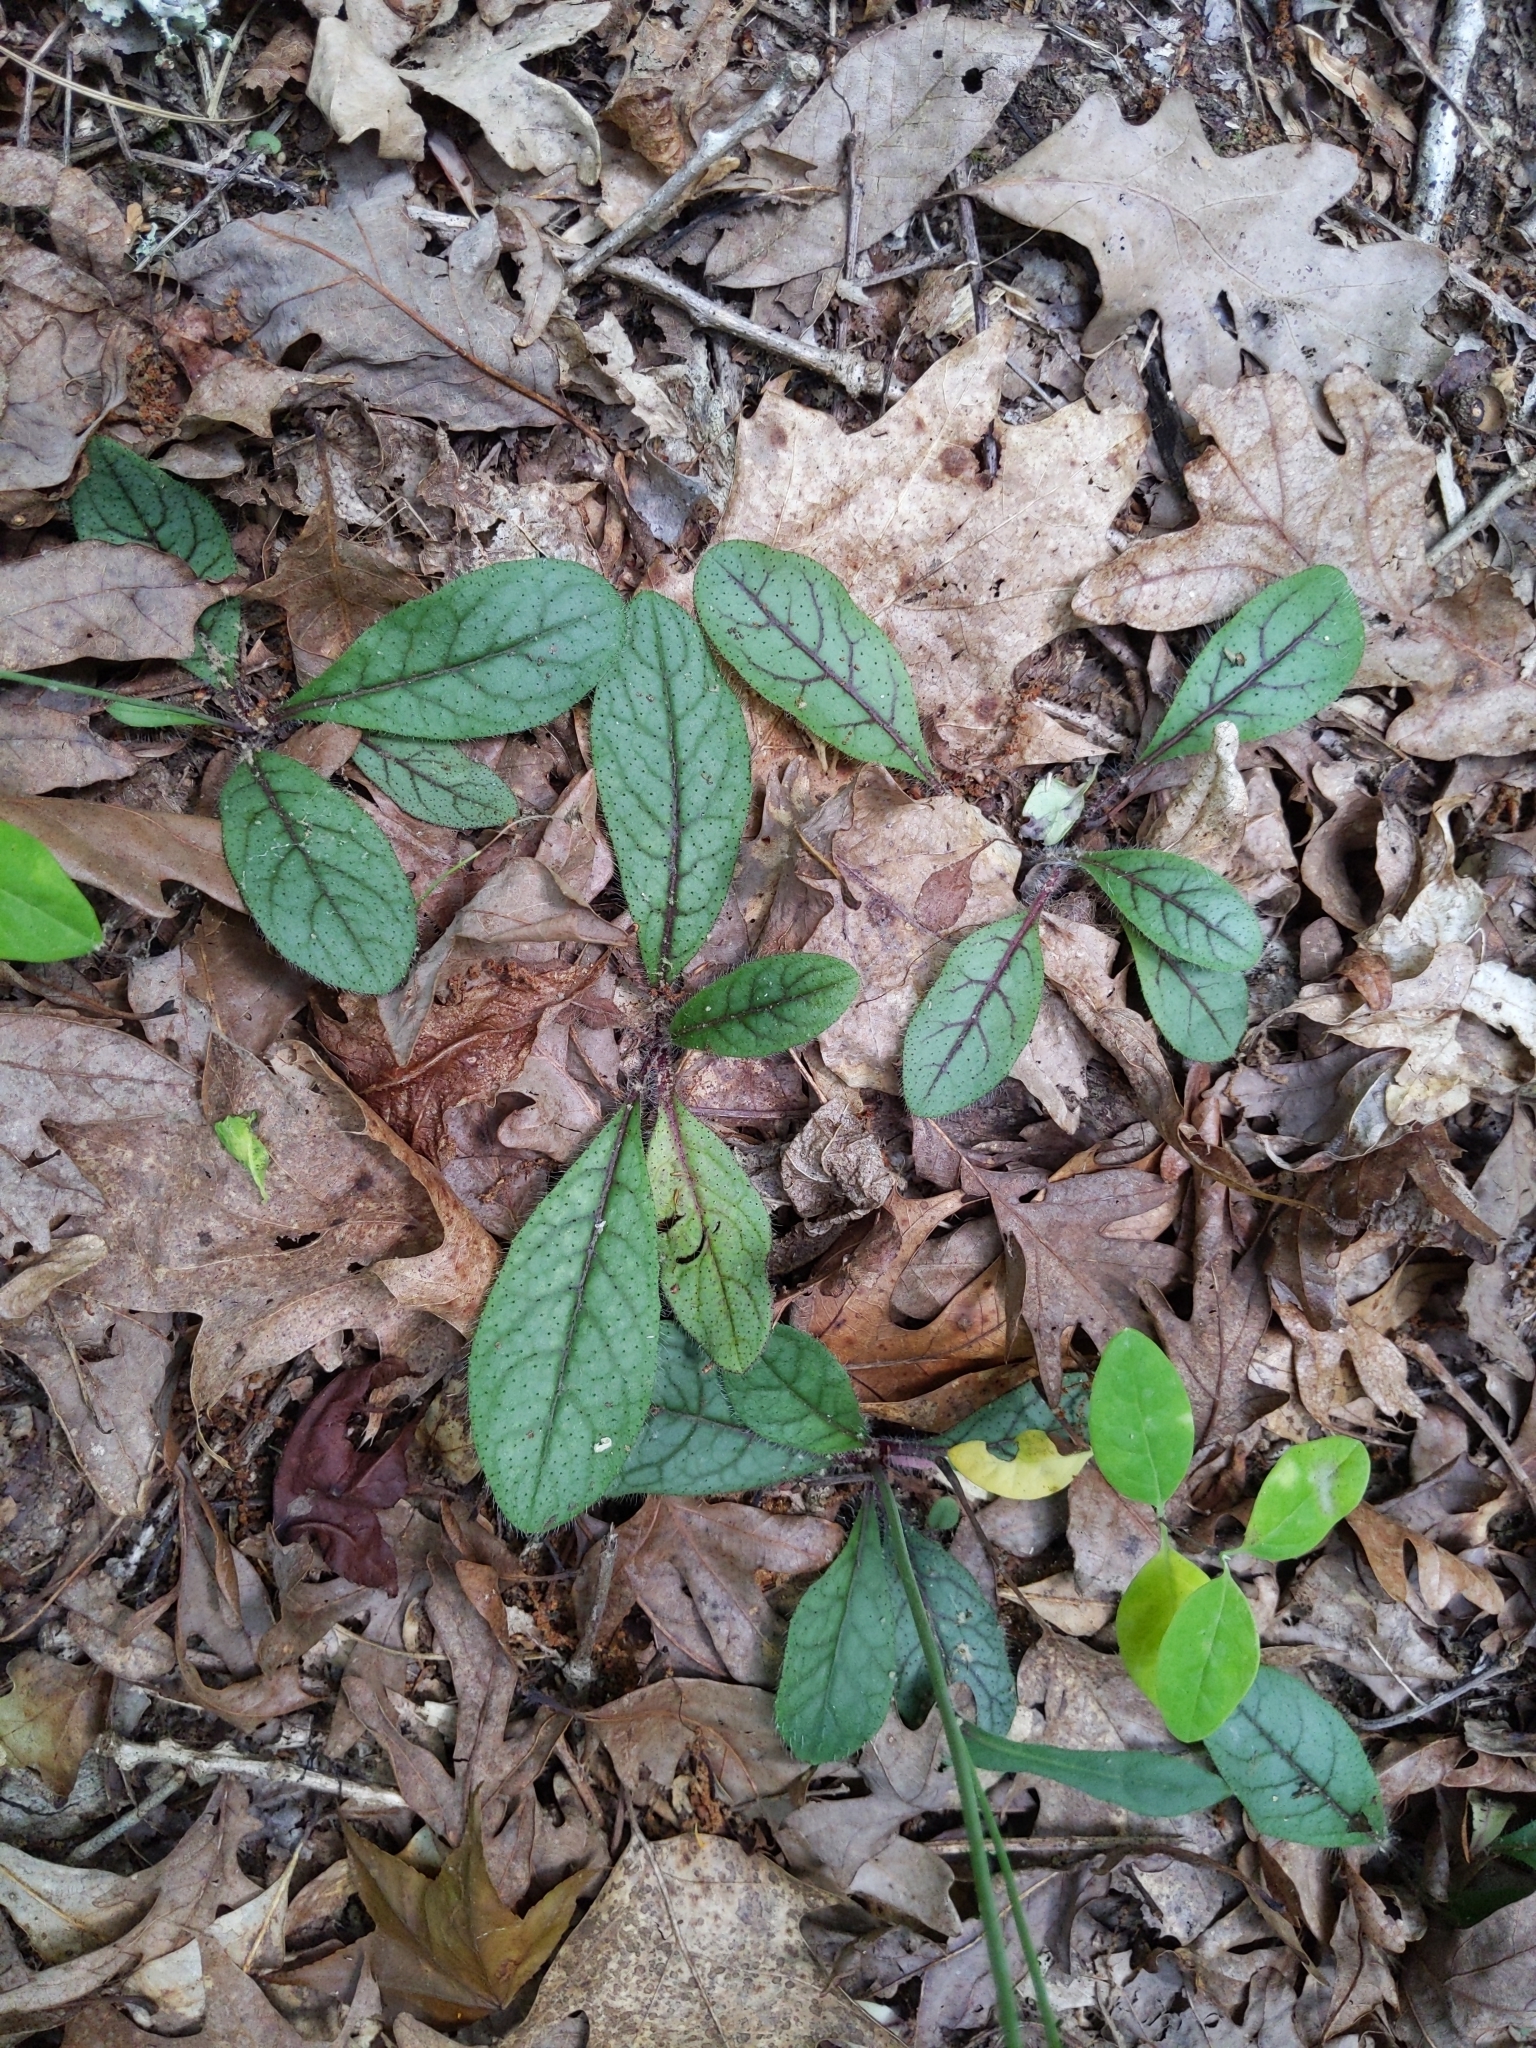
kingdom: Plantae
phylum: Tracheophyta
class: Magnoliopsida
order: Asterales
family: Asteraceae
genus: Hieracium
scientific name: Hieracium venosum
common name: Rattlesnake hawkweed
